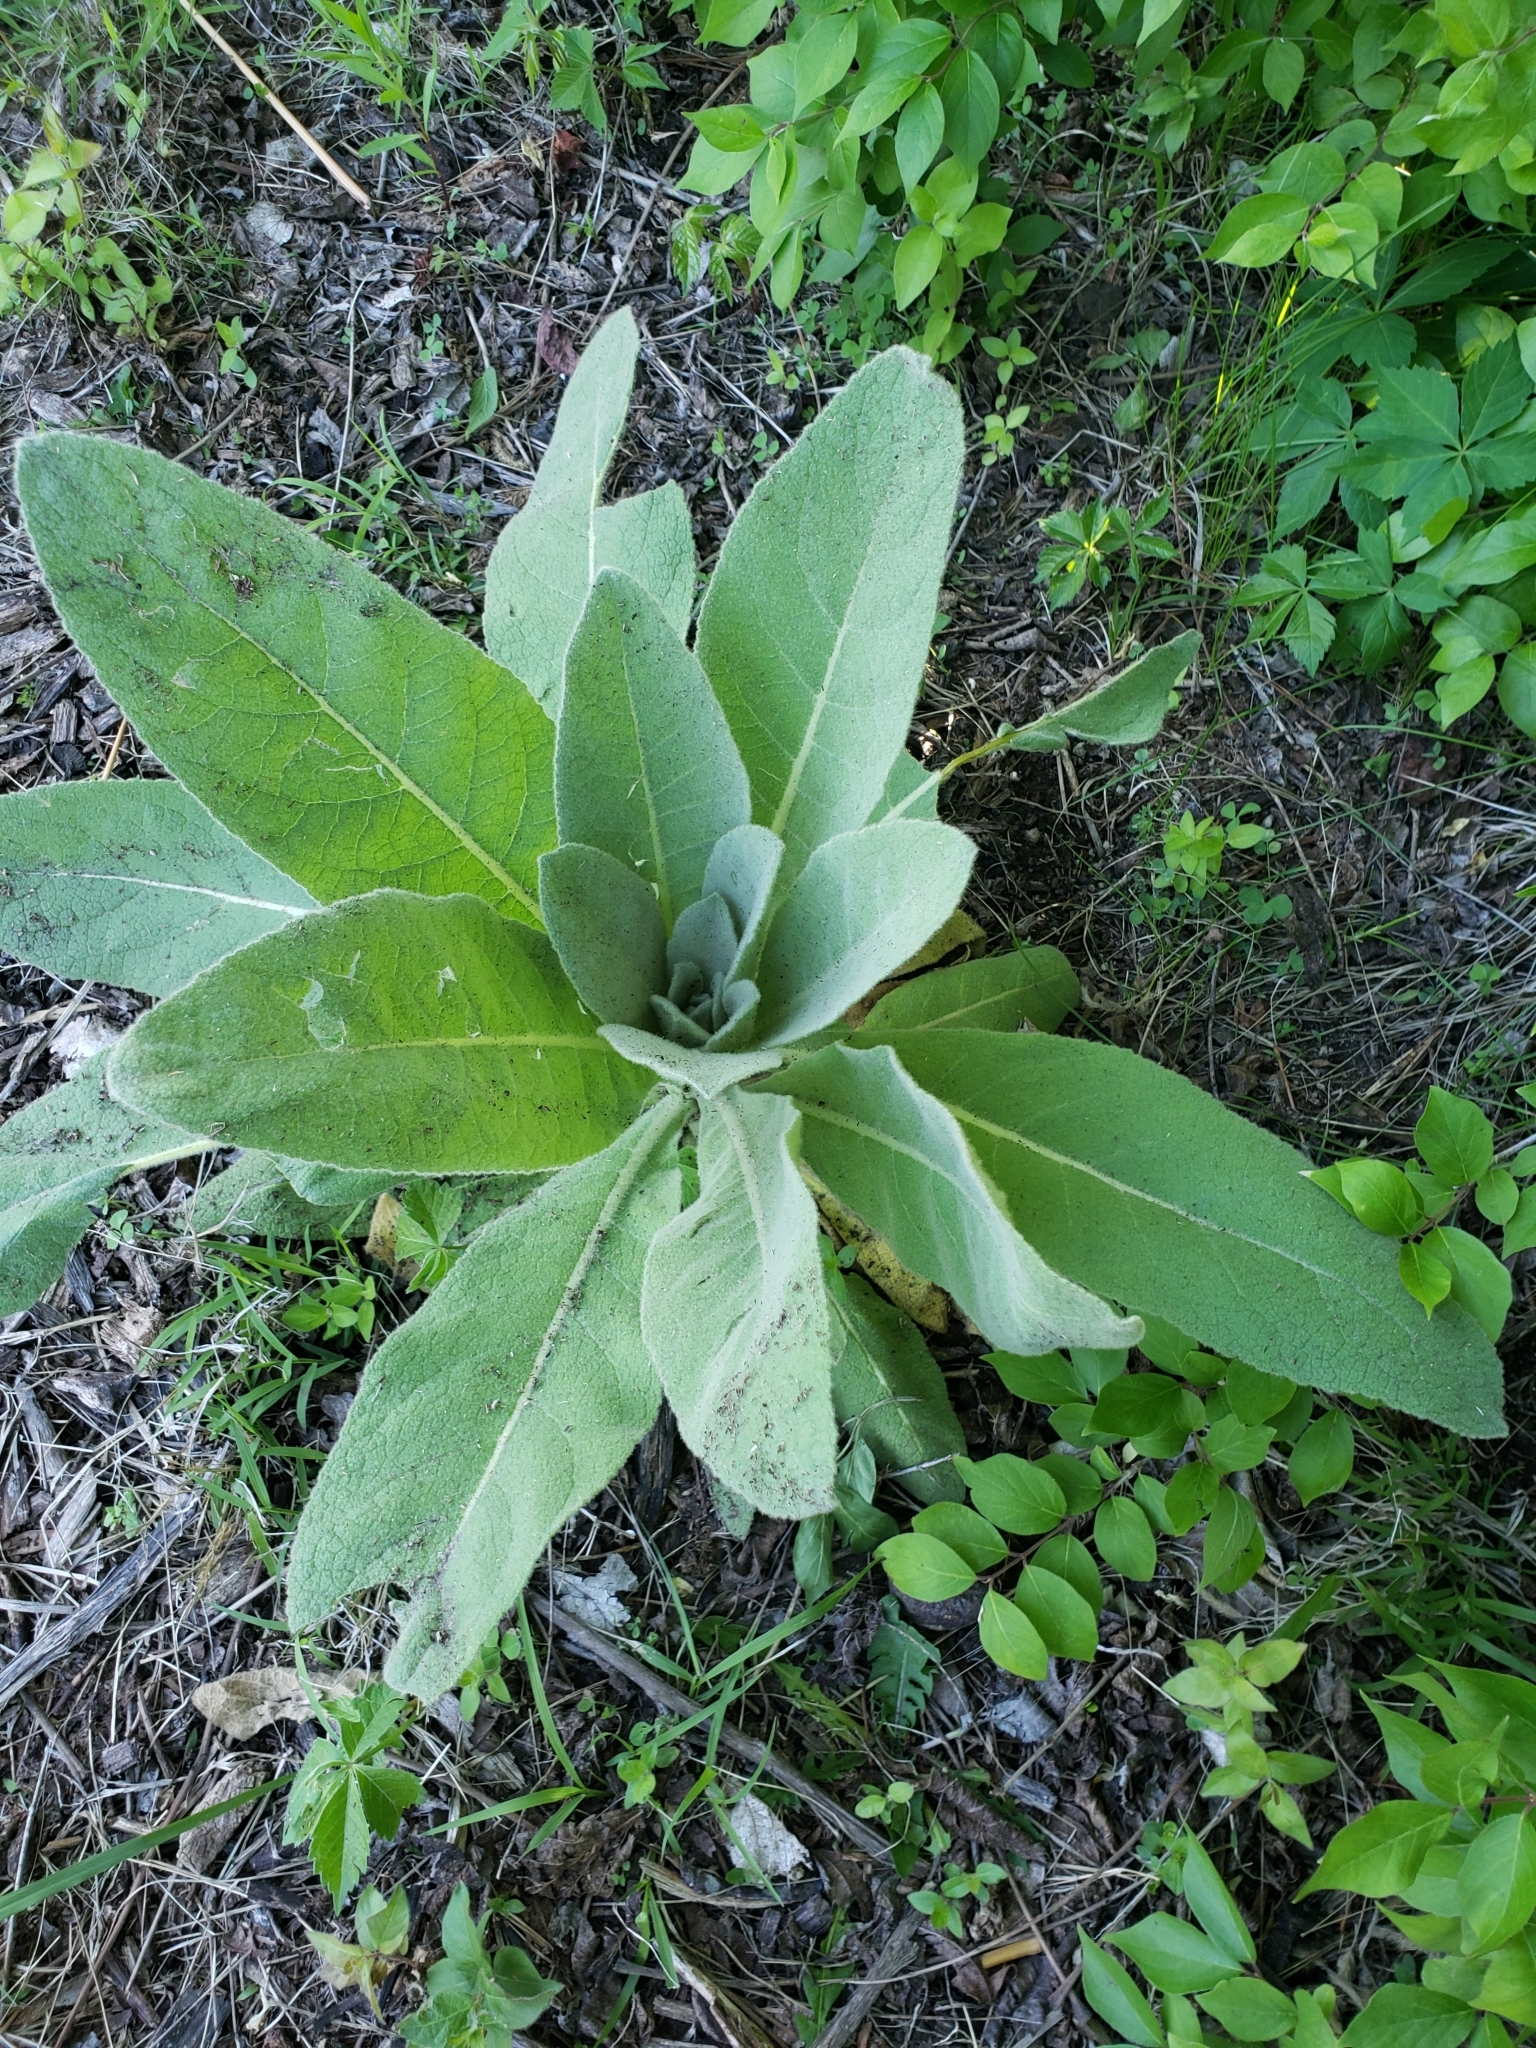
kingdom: Plantae
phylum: Tracheophyta
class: Magnoliopsida
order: Lamiales
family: Scrophulariaceae
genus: Verbascum
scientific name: Verbascum thapsus
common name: Common mullein
